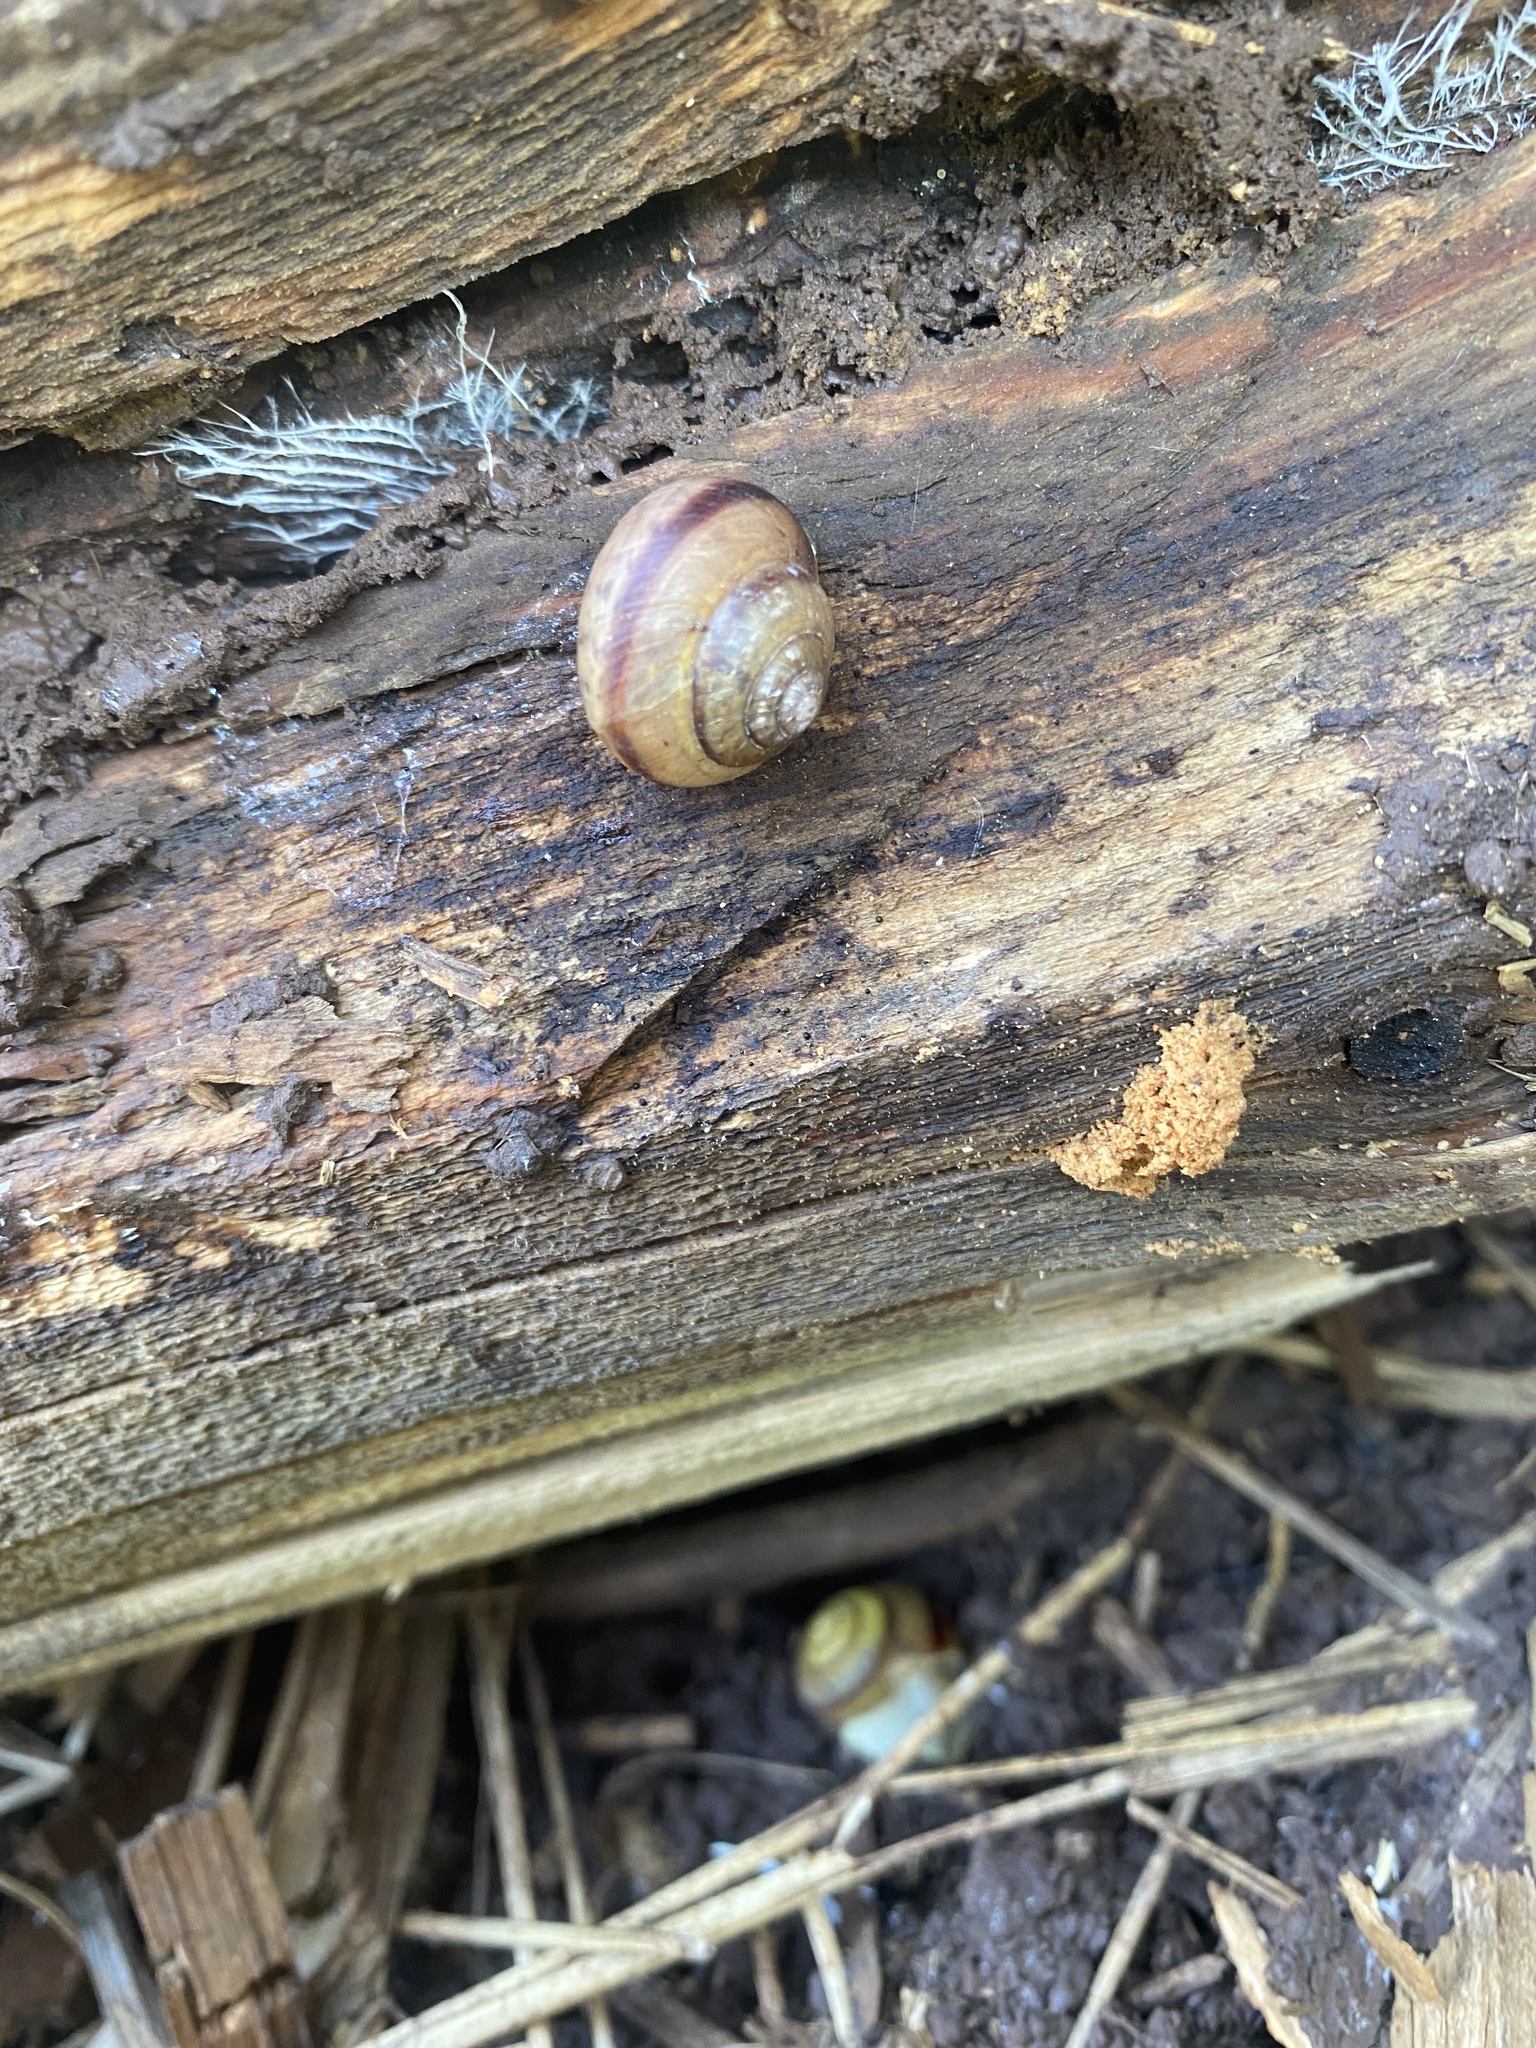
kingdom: Animalia
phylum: Mollusca
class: Gastropoda
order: Stylommatophora
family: Camaenidae
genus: Fruticicola
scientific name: Fruticicola fruticum
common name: Bush snail
